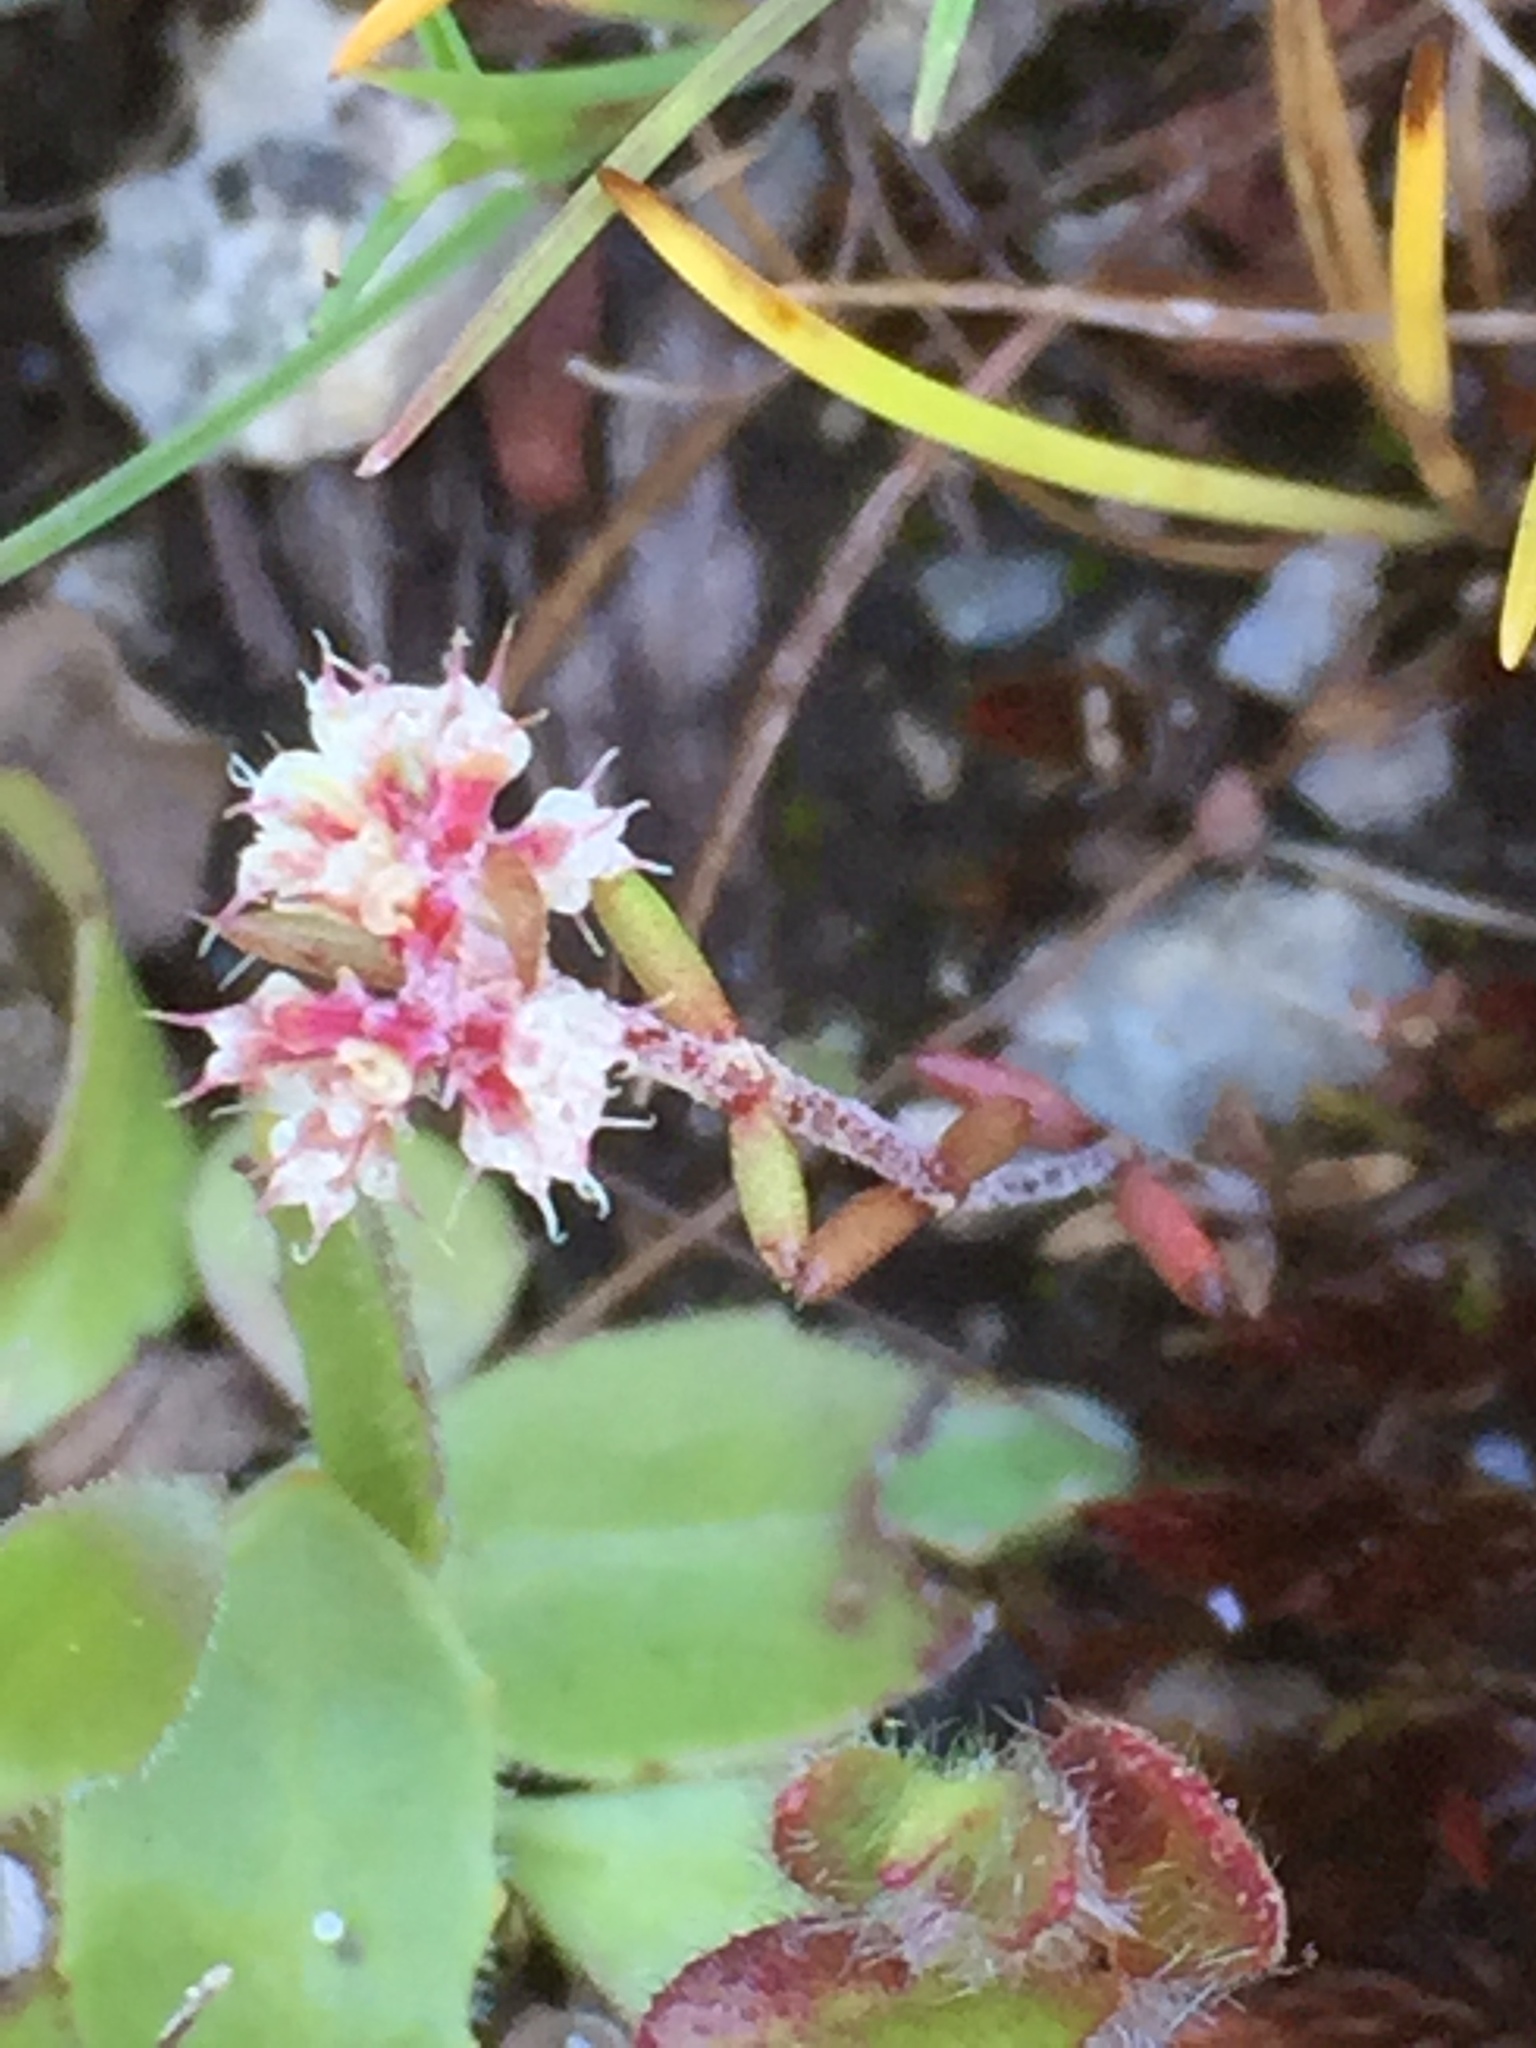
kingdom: Plantae
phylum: Tracheophyta
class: Magnoliopsida
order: Caryophyllales
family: Caryophyllaceae
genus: Chaetonychia
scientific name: Chaetonychia cymosa
